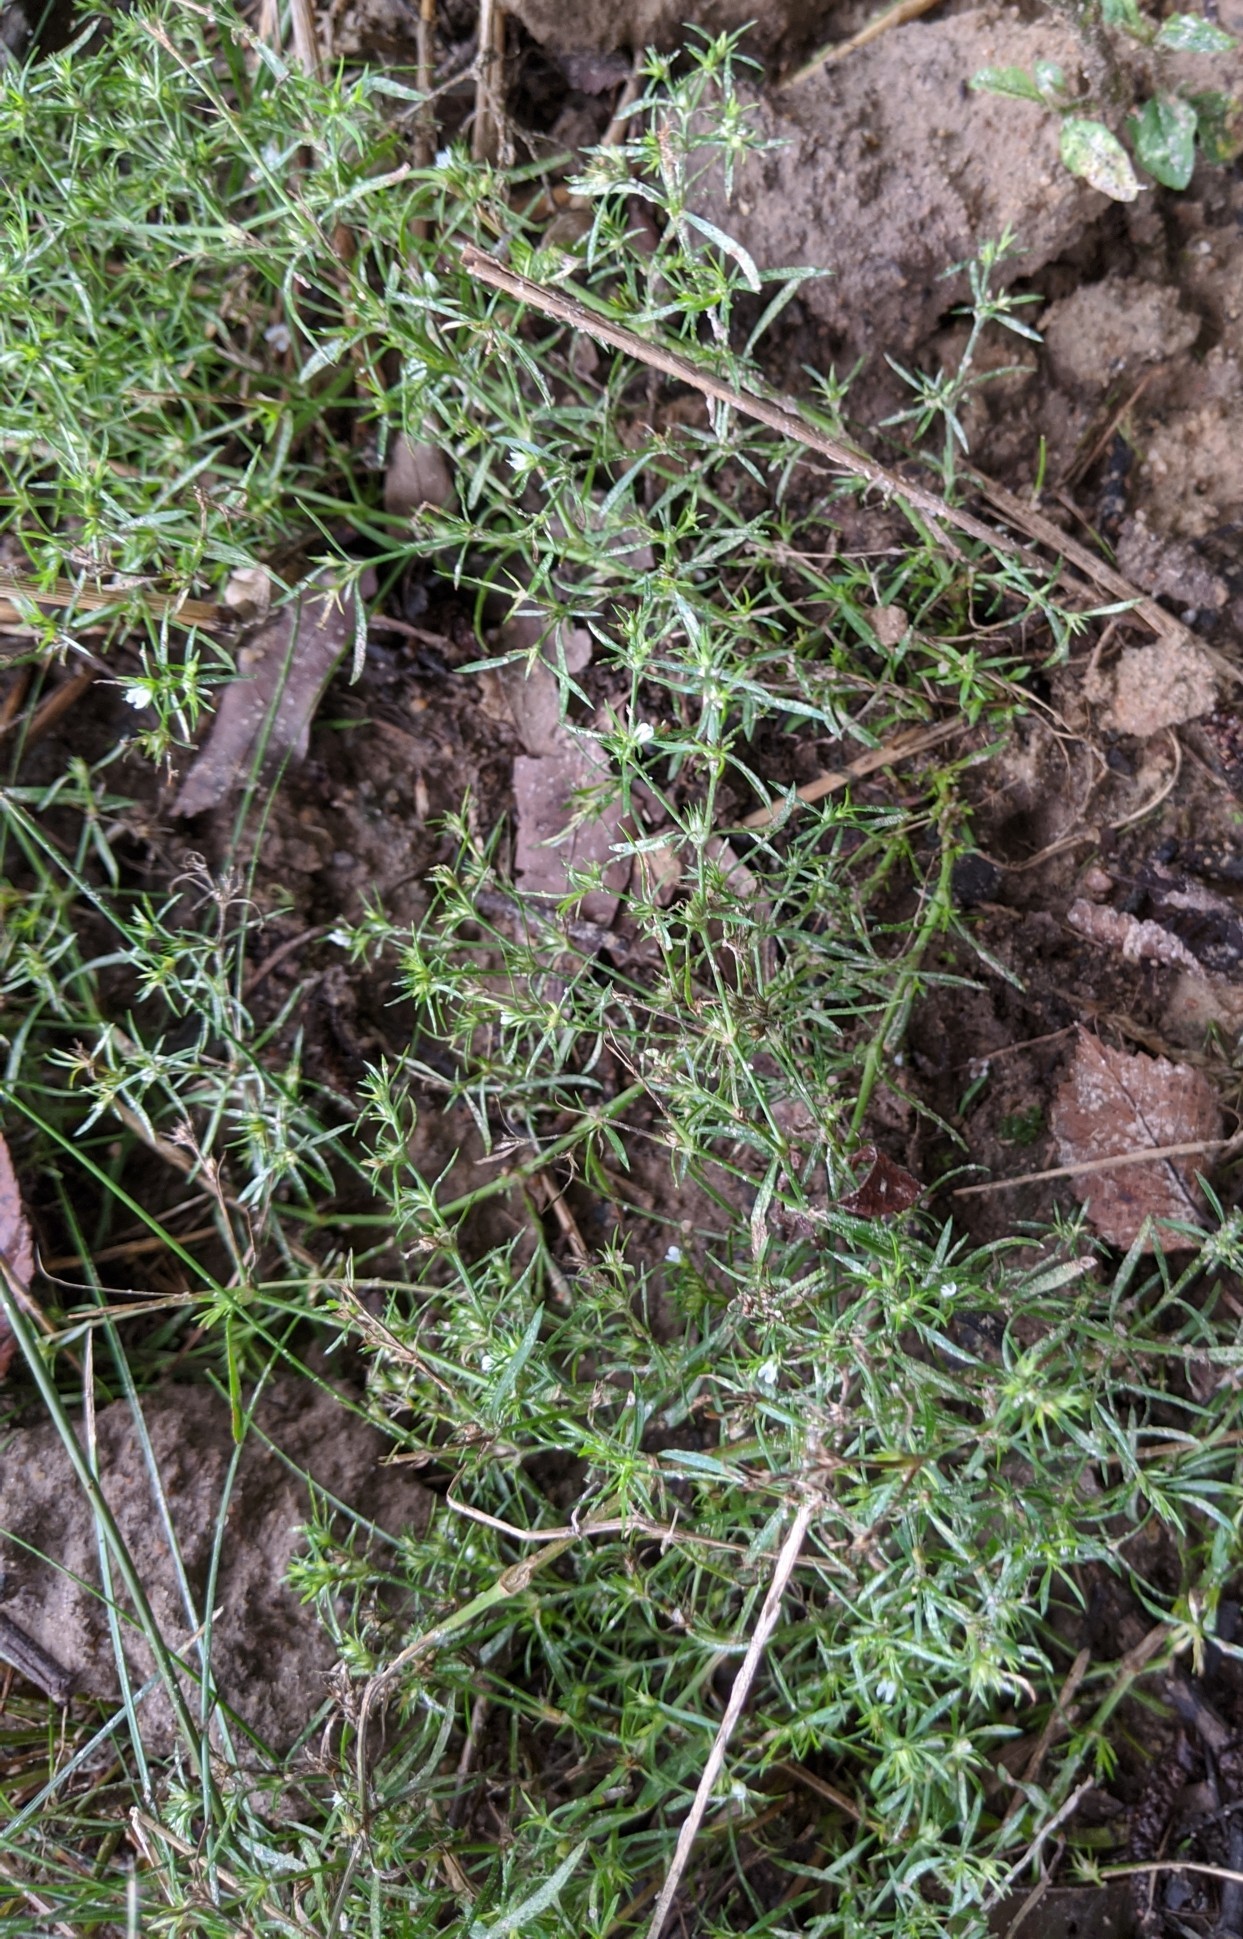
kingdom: Plantae
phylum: Tracheophyta
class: Magnoliopsida
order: Lamiales
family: Tetrachondraceae
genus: Polypremum
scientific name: Polypremum procumbens
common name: Juniper-leaf
